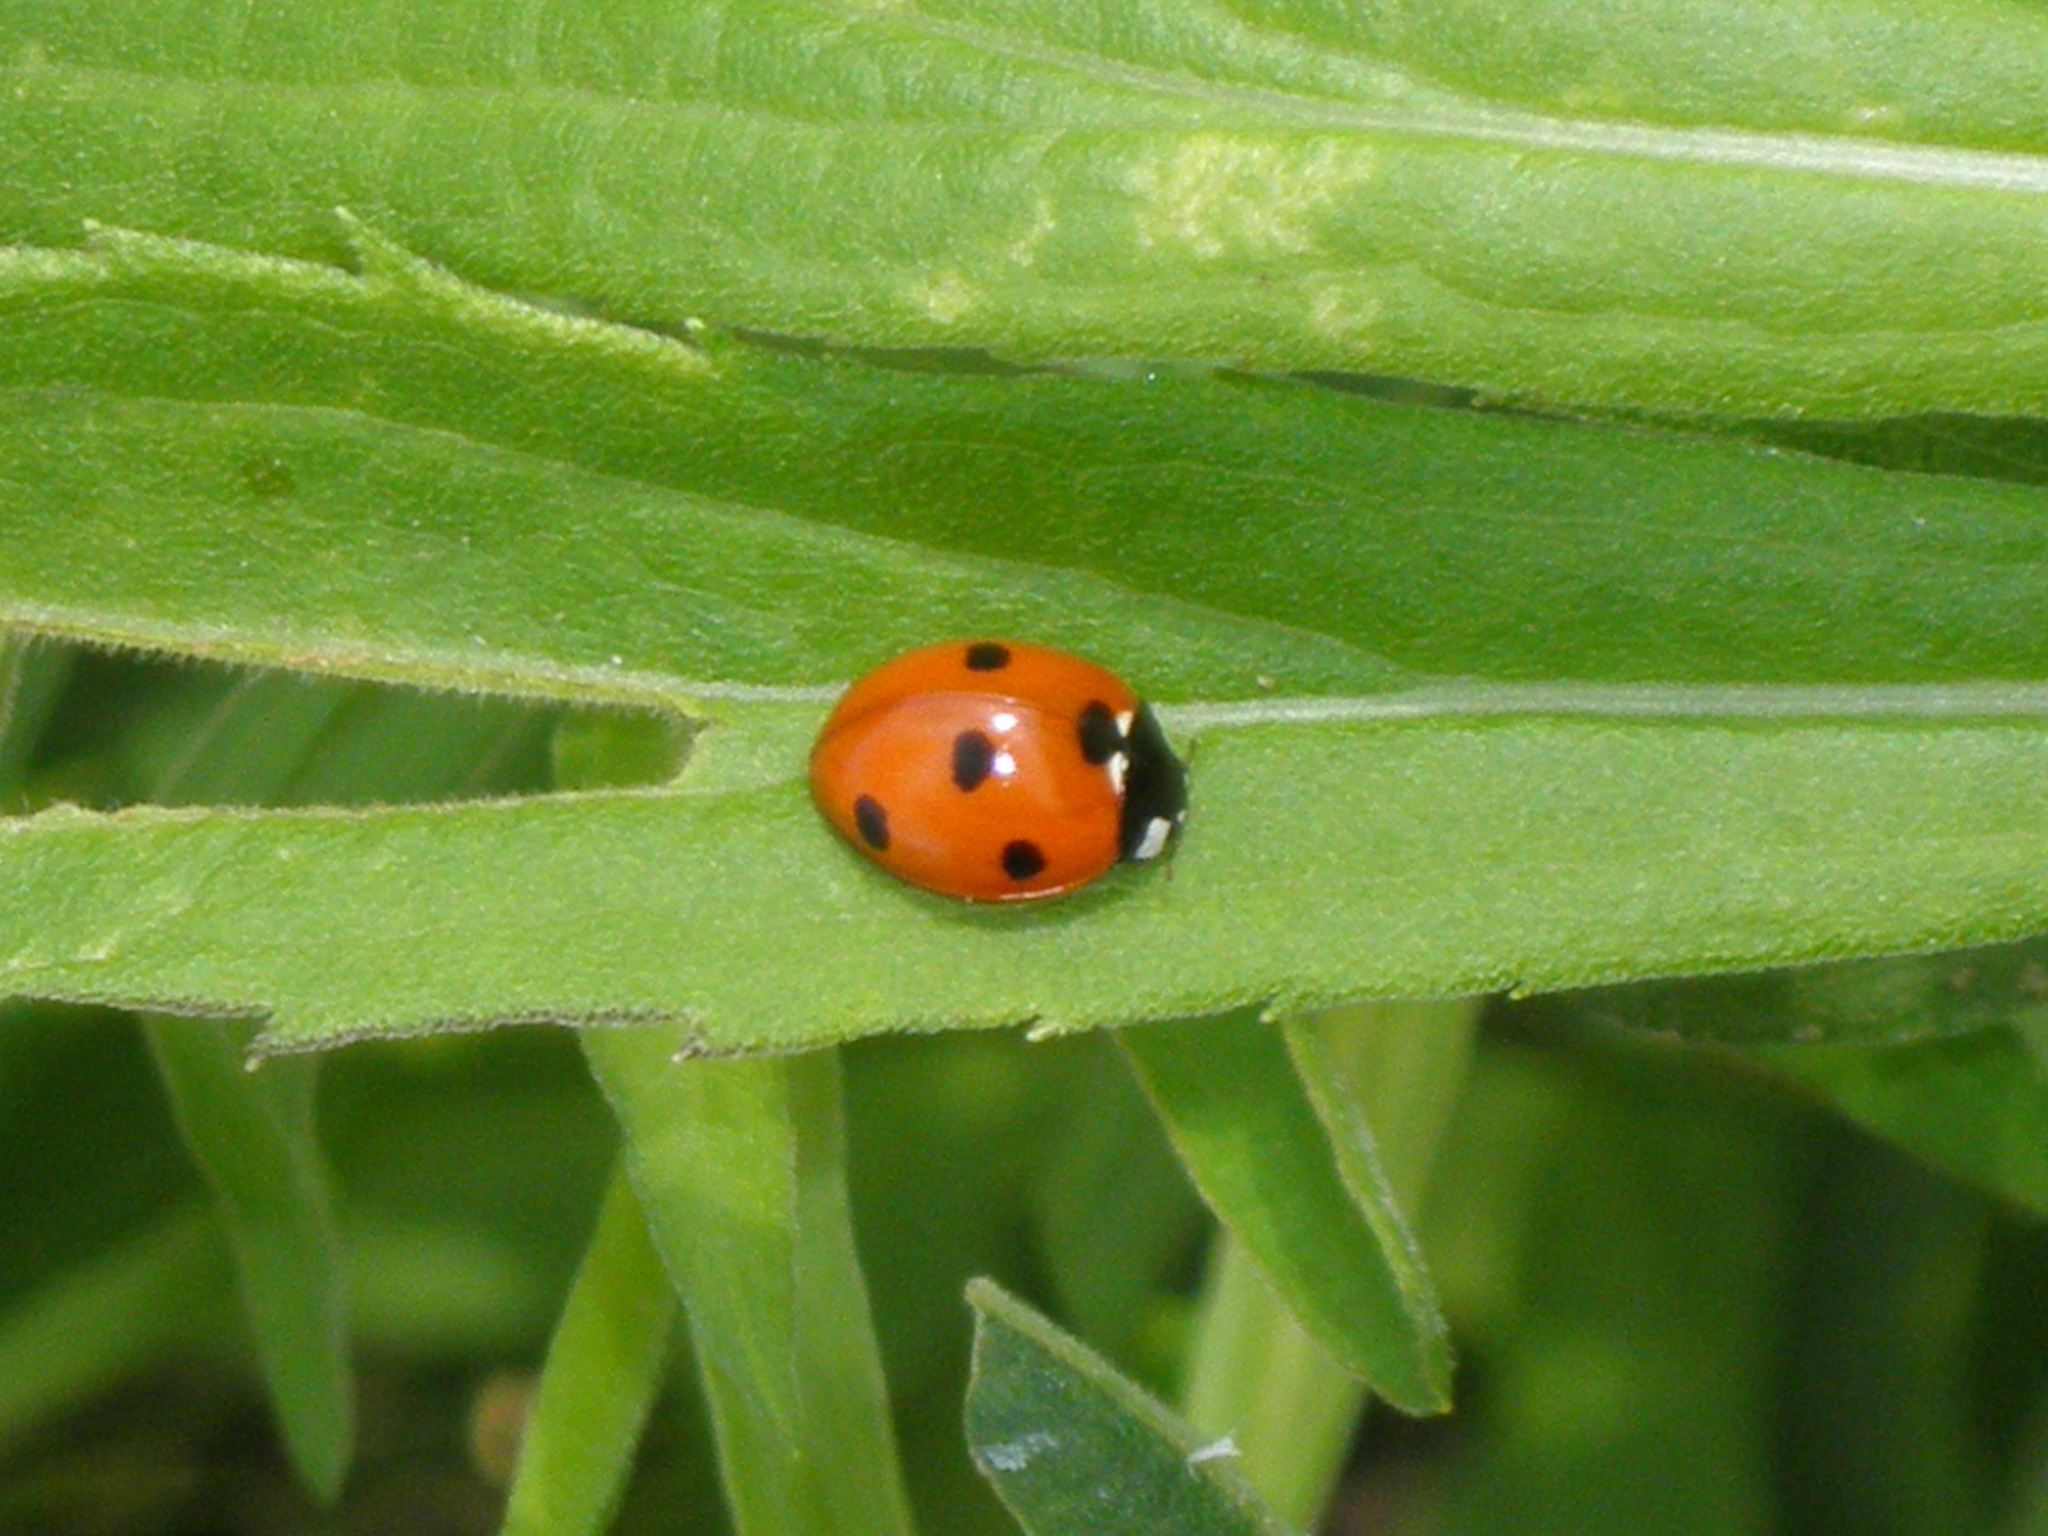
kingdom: Animalia
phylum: Arthropoda
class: Insecta
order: Coleoptera
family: Coccinellidae
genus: Coccinella
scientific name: Coccinella septempunctata
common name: Sevenspotted lady beetle
